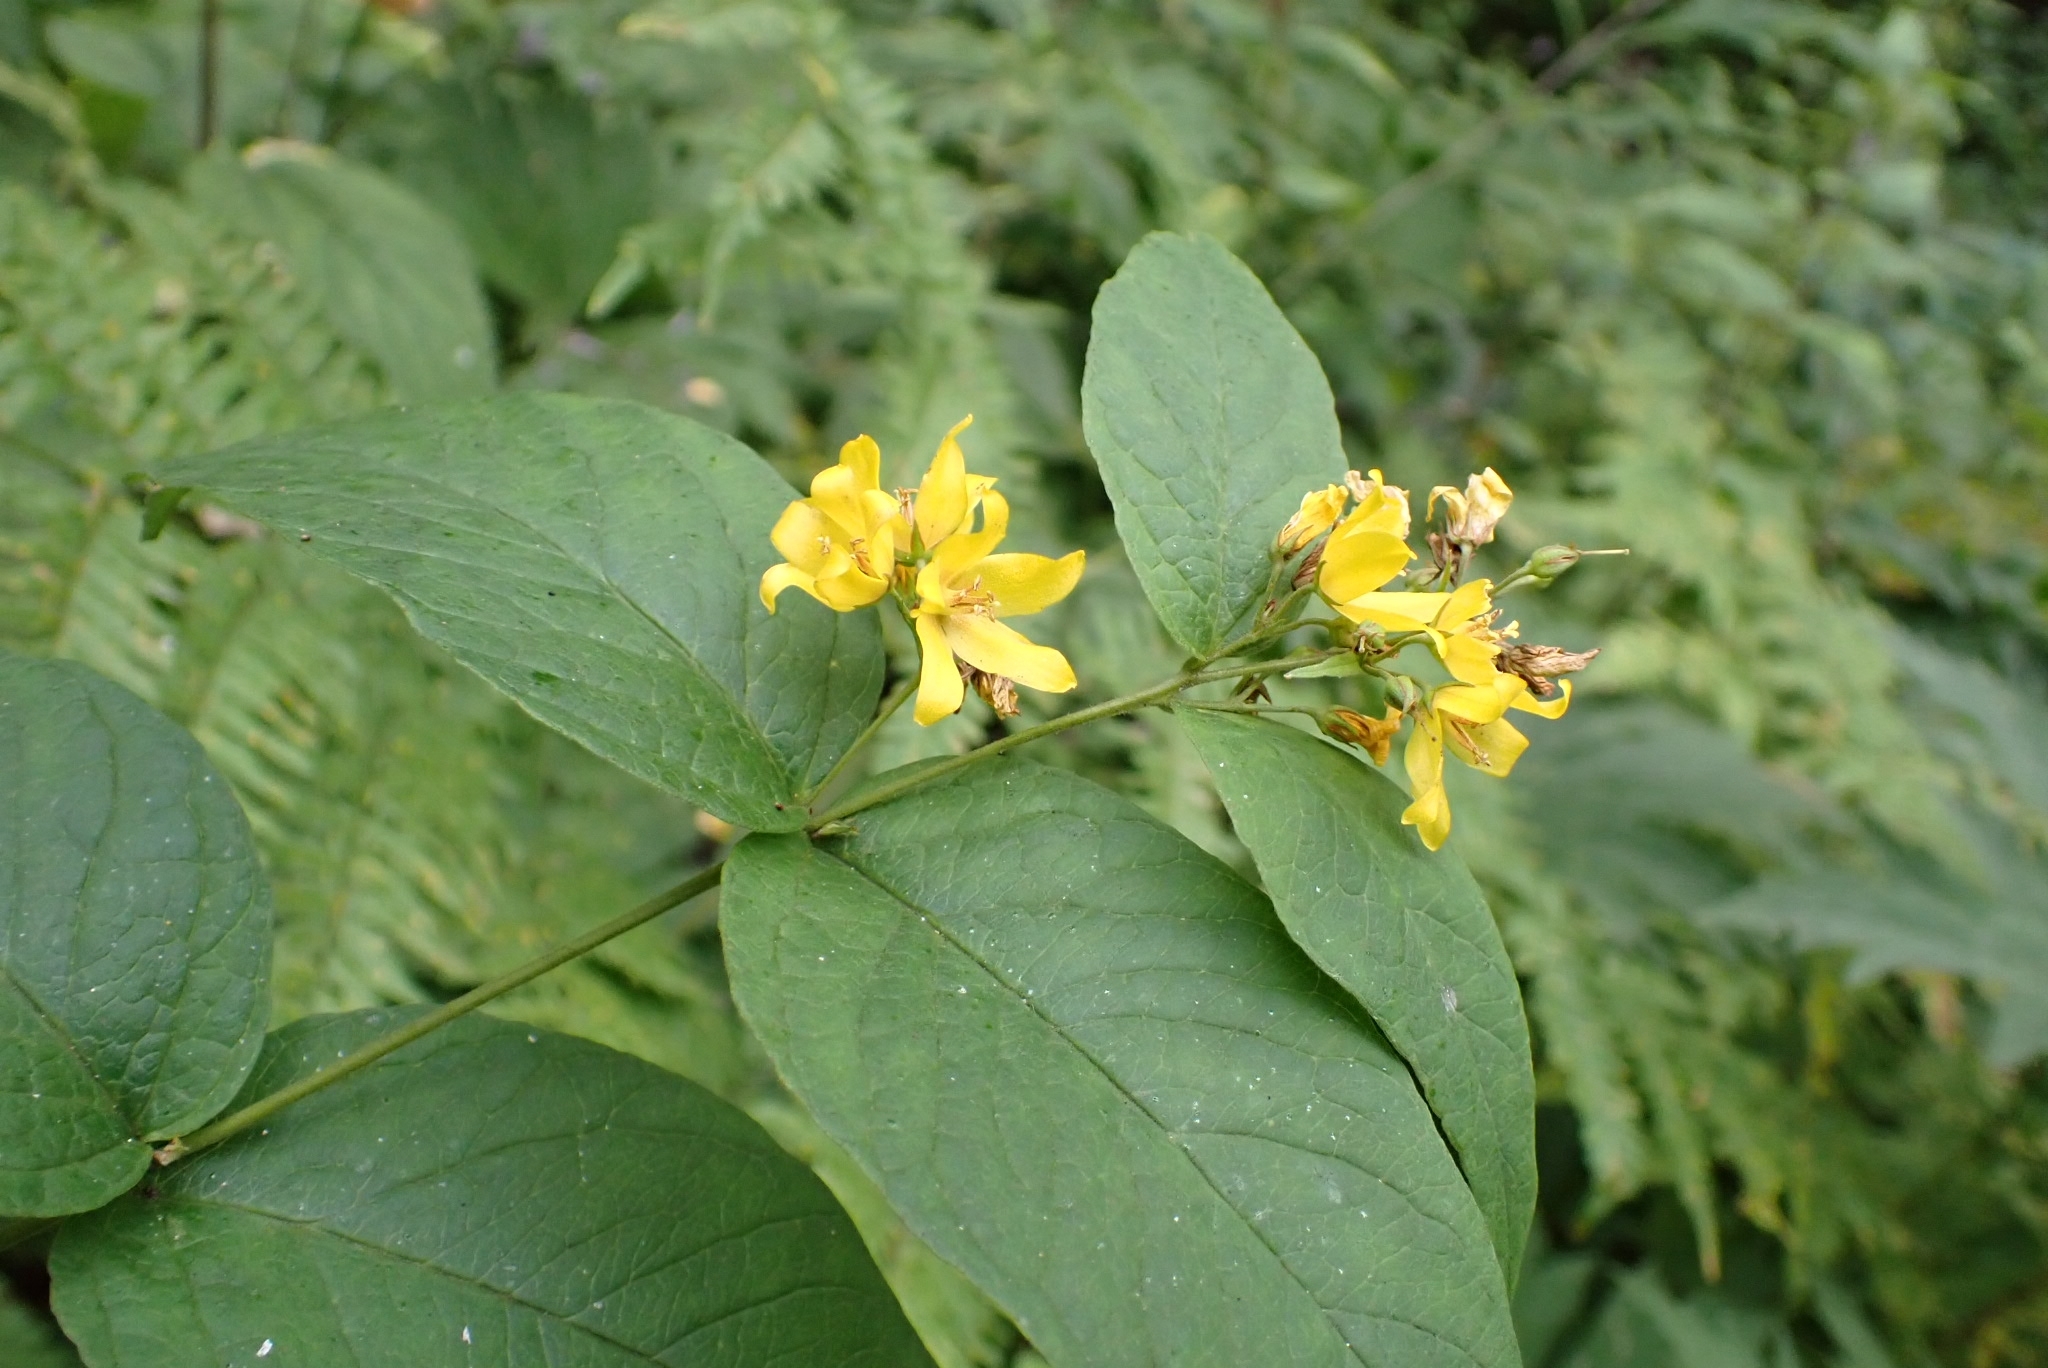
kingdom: Plantae
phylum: Tracheophyta
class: Magnoliopsida
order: Ericales
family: Primulaceae
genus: Lysimachia
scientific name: Lysimachia vulgaris
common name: Yellow loosestrife
